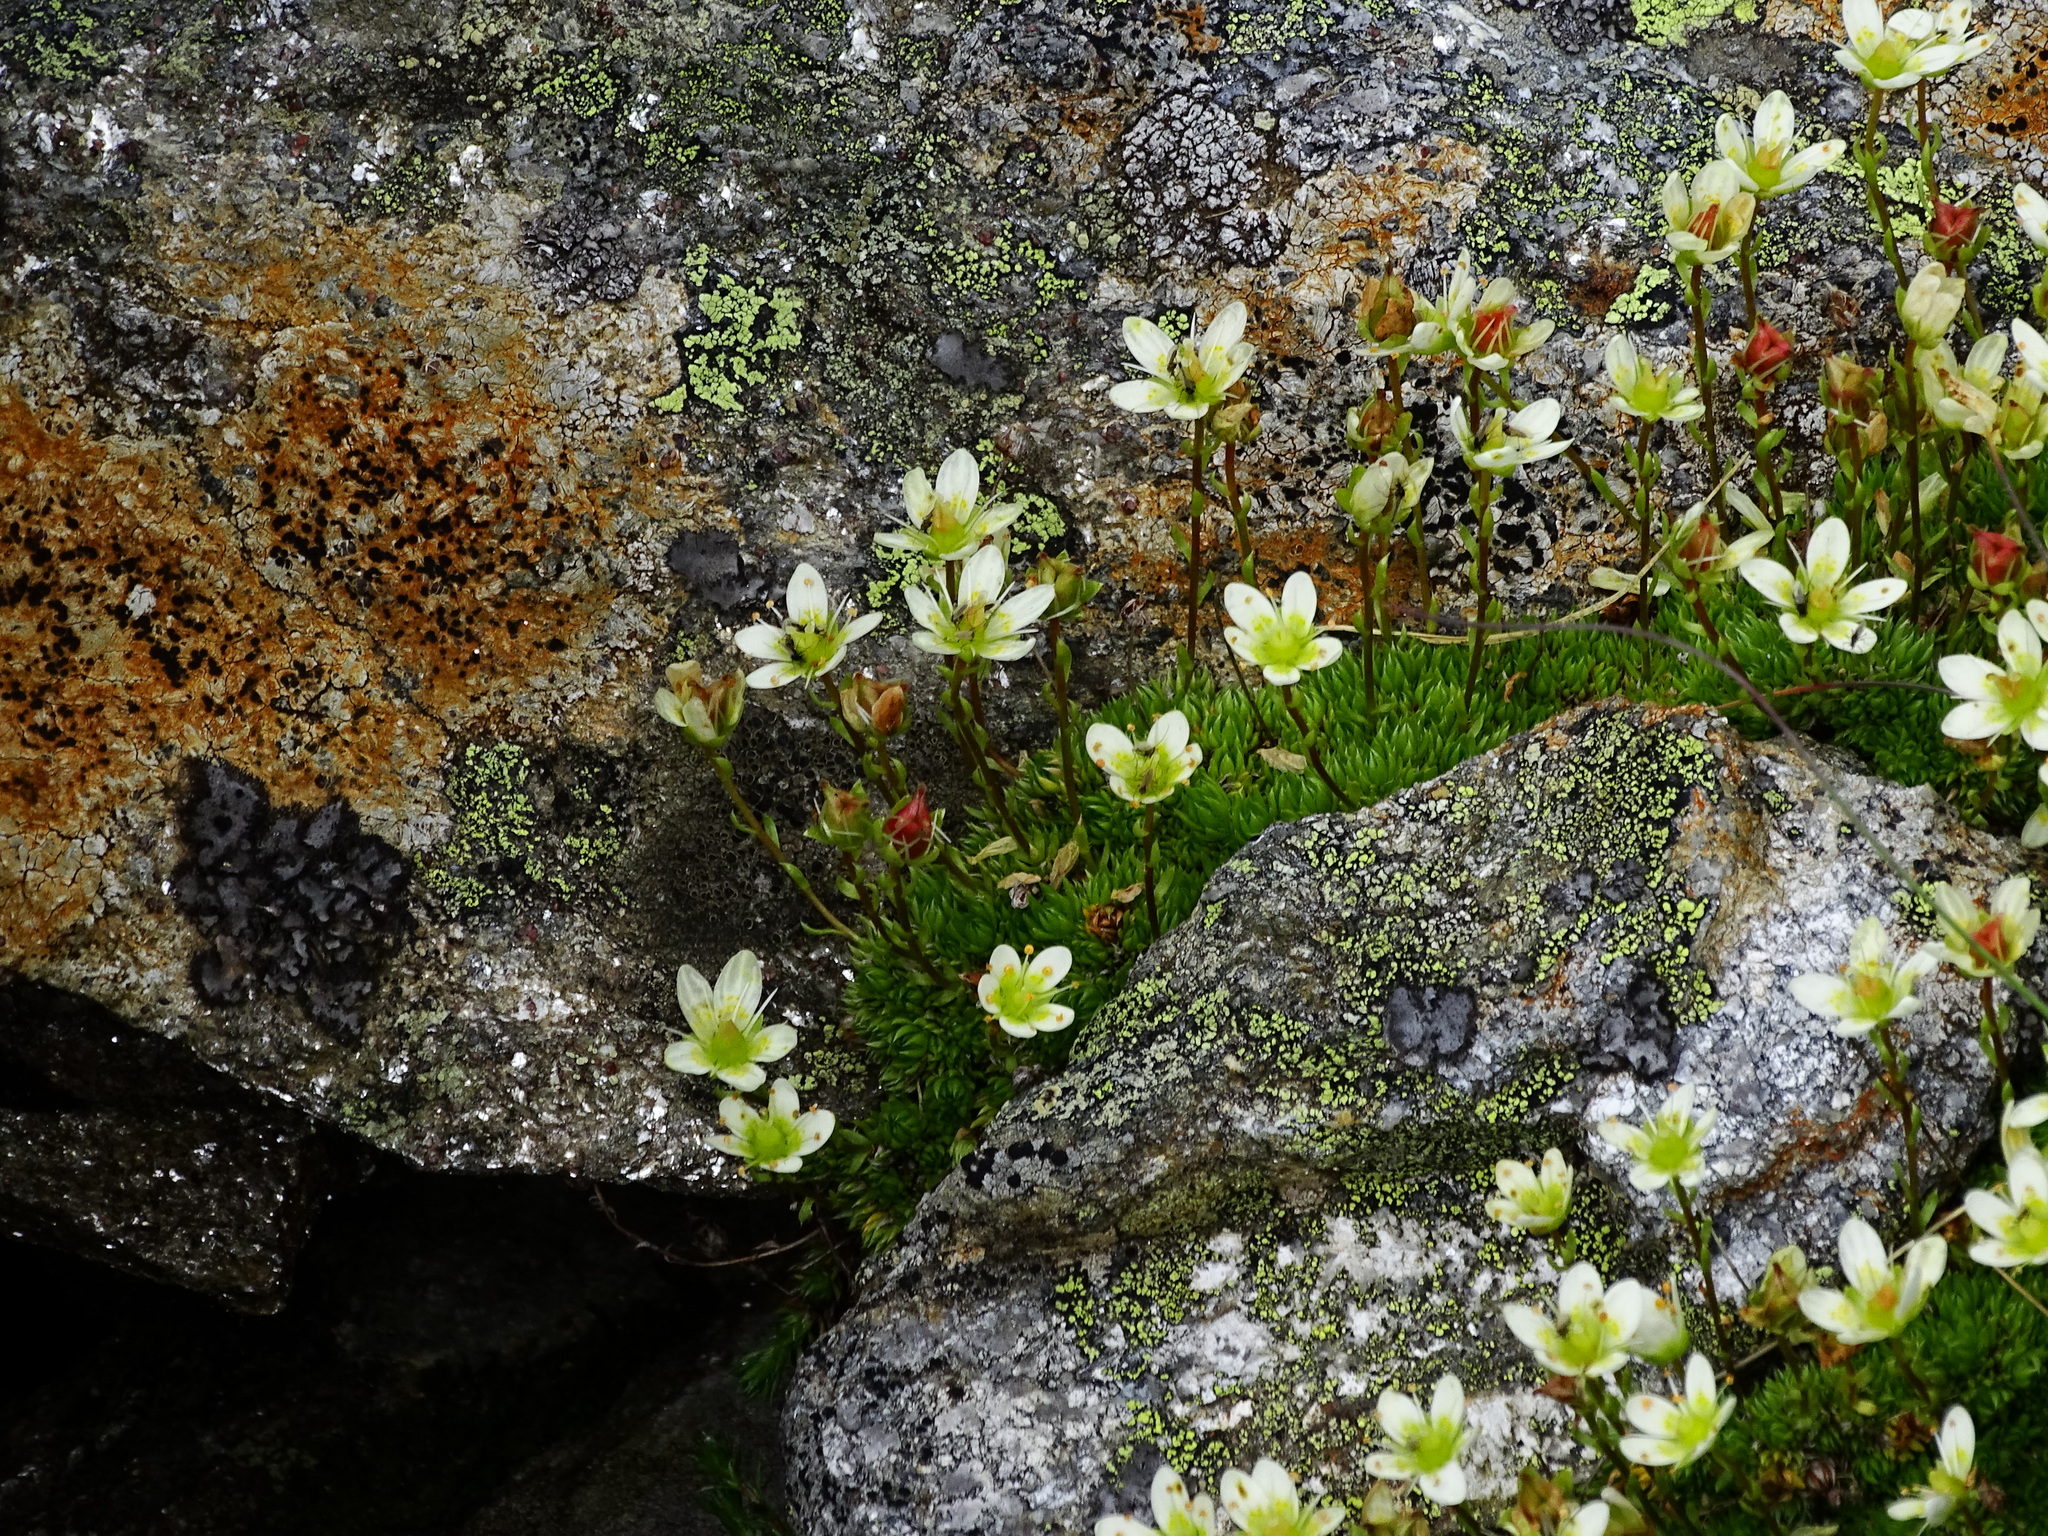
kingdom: Plantae
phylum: Tracheophyta
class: Magnoliopsida
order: Saxifragales
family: Saxifragaceae
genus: Saxifraga
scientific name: Saxifraga bryoides
